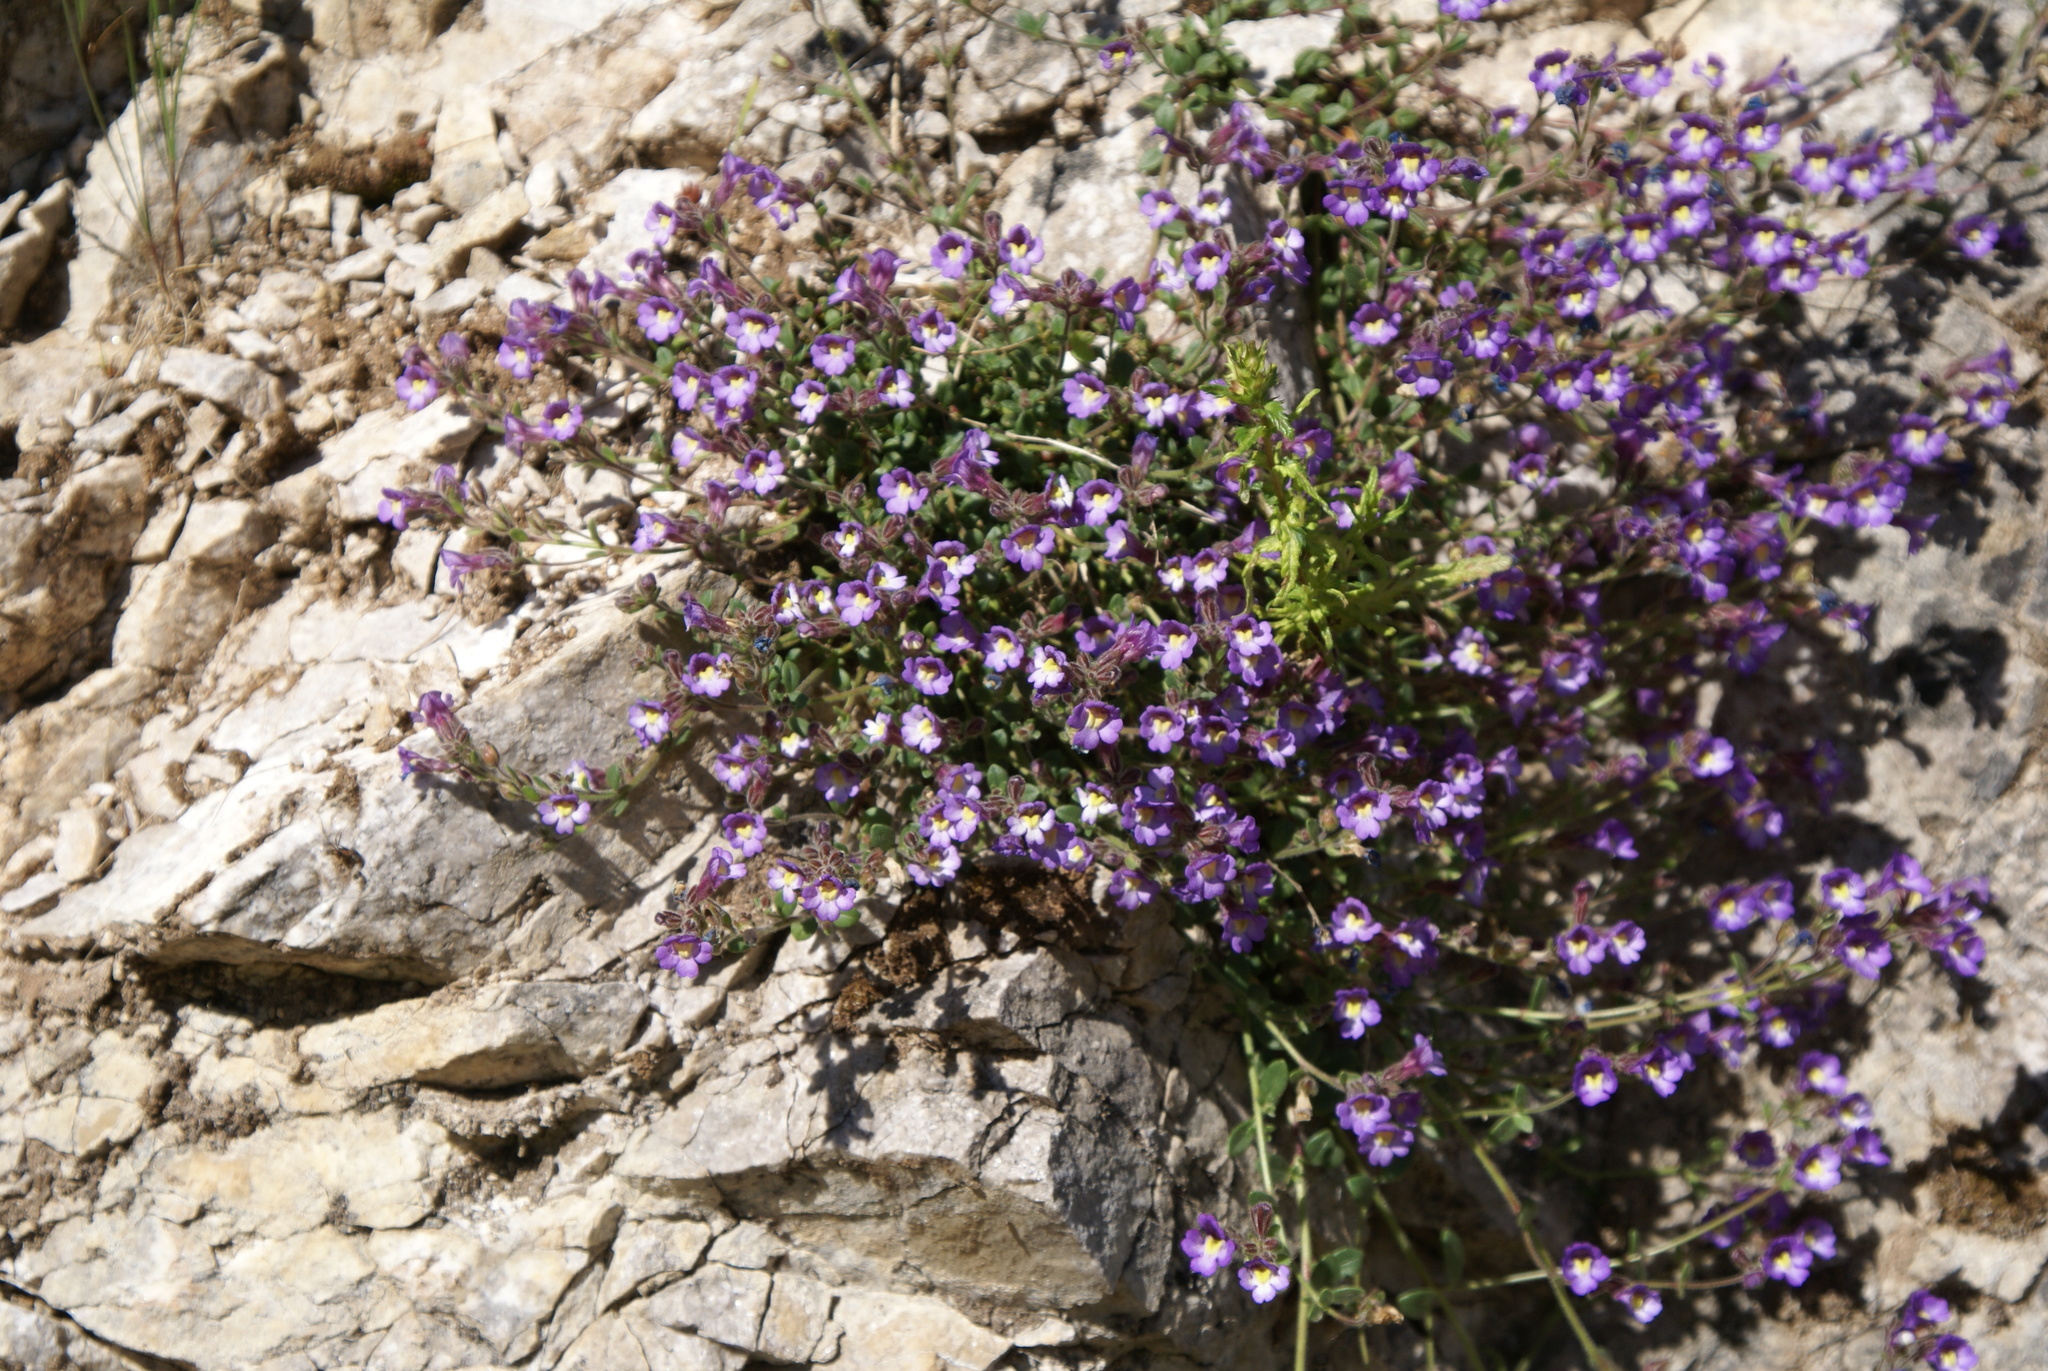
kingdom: Plantae
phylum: Tracheophyta
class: Magnoliopsida
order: Lamiales
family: Plantaginaceae
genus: Chaenorhinum
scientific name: Chaenorhinum origanifolium
